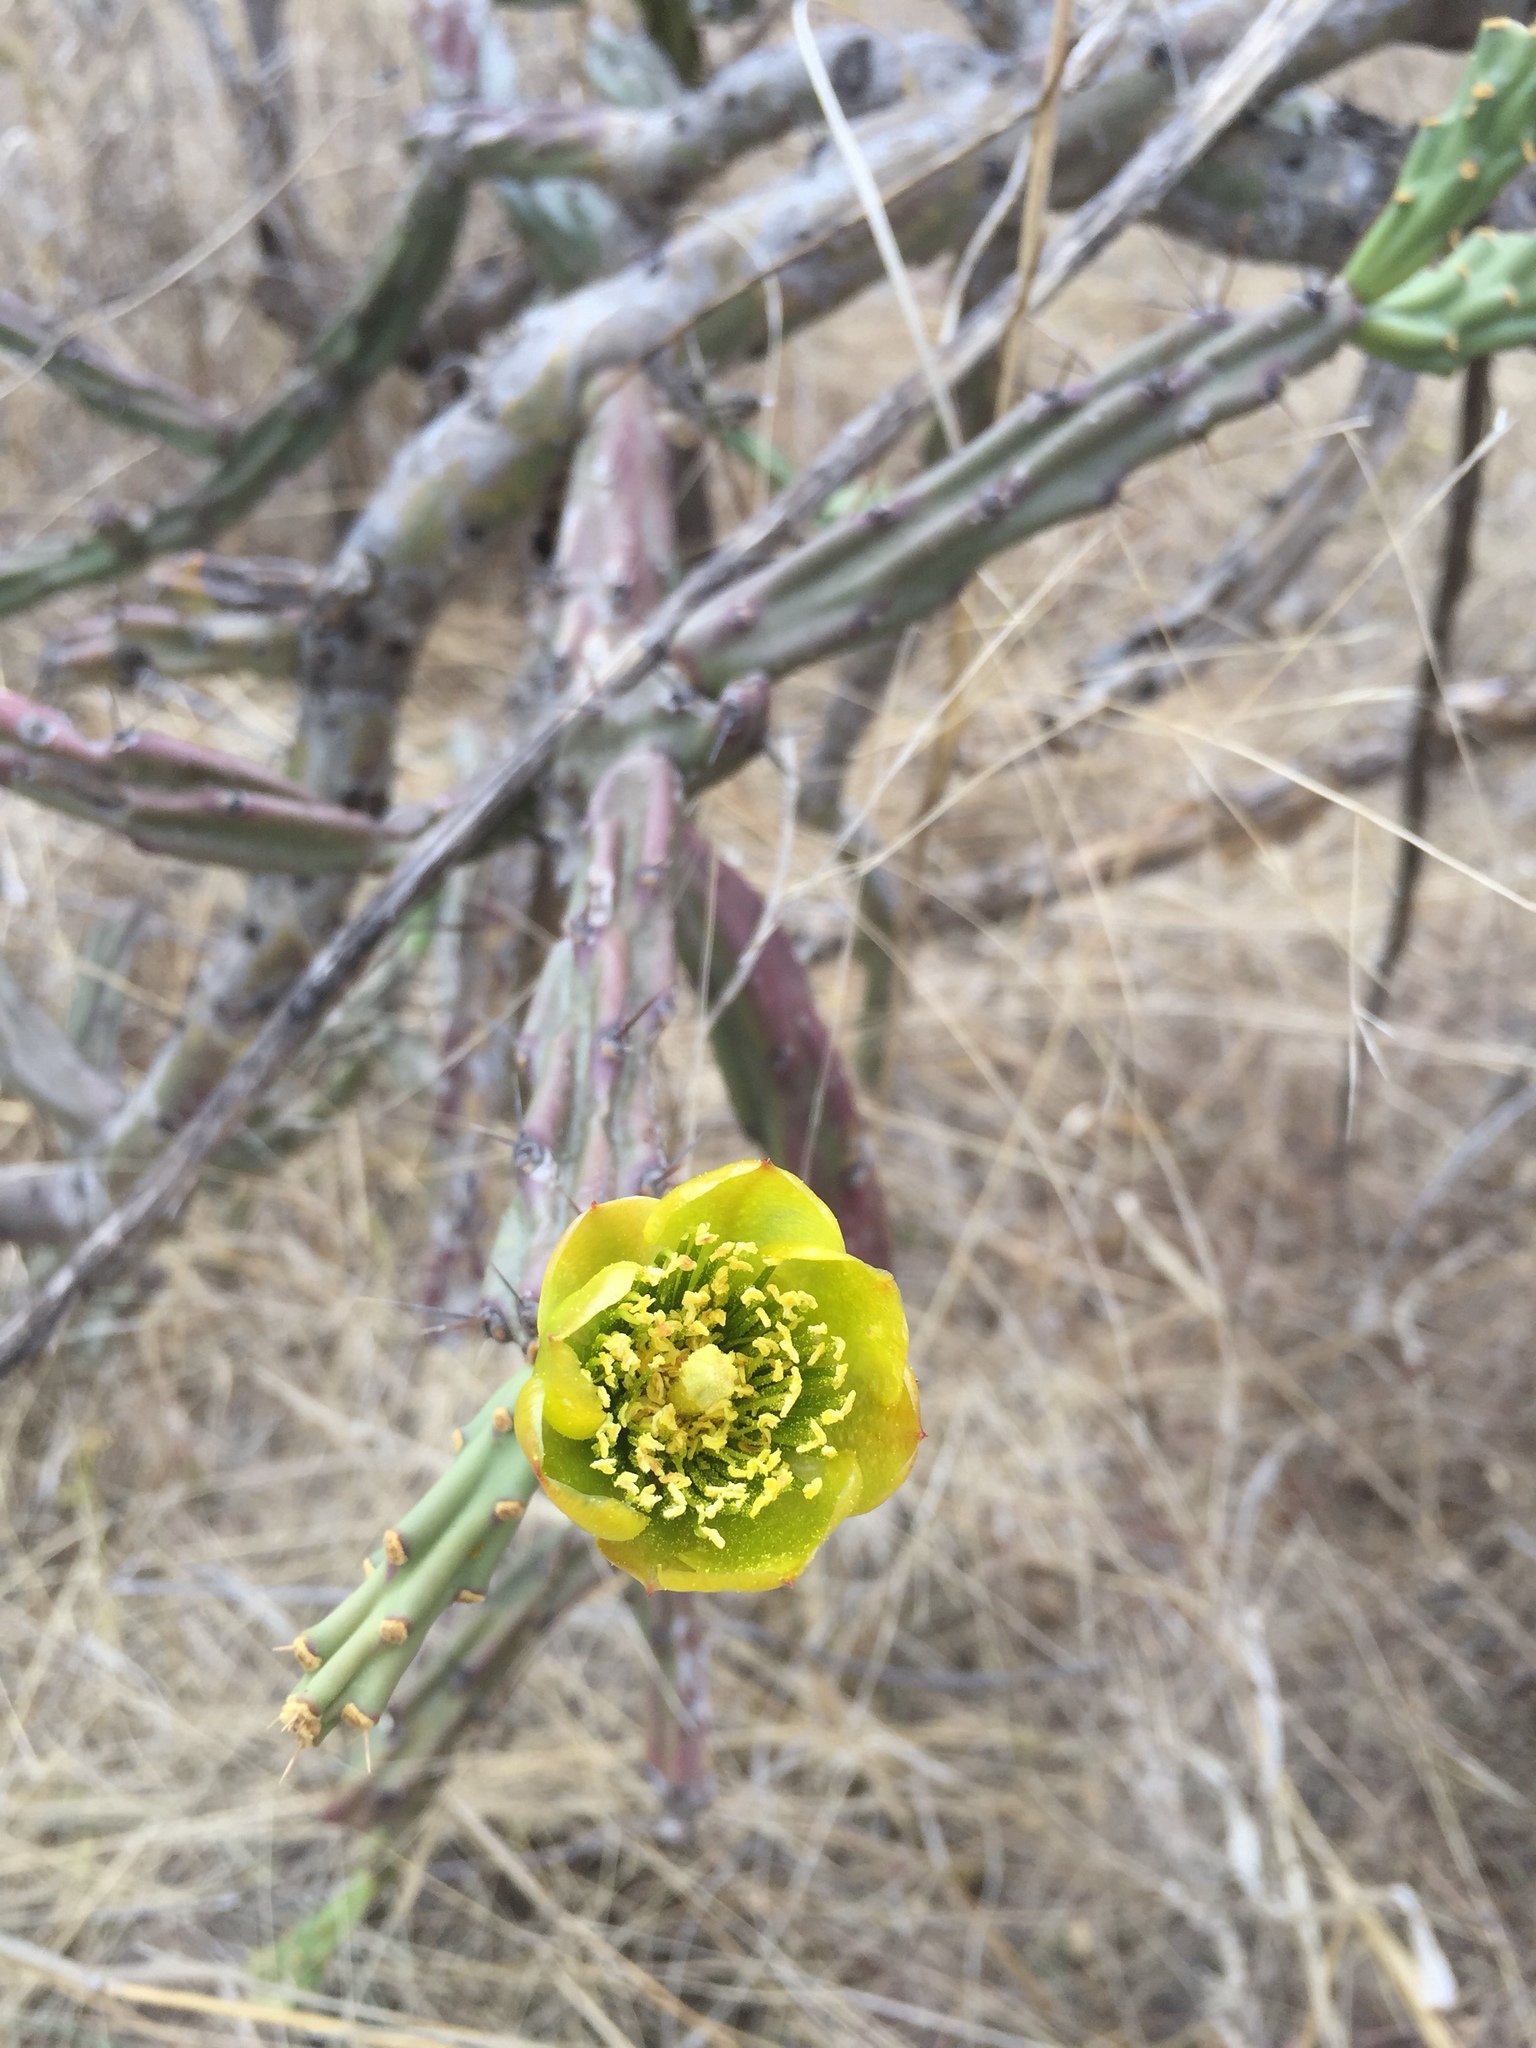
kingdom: Plantae
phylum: Tracheophyta
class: Magnoliopsida
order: Caryophyllales
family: Cactaceae
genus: Cylindropuntia
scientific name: Cylindropuntia thurberi
